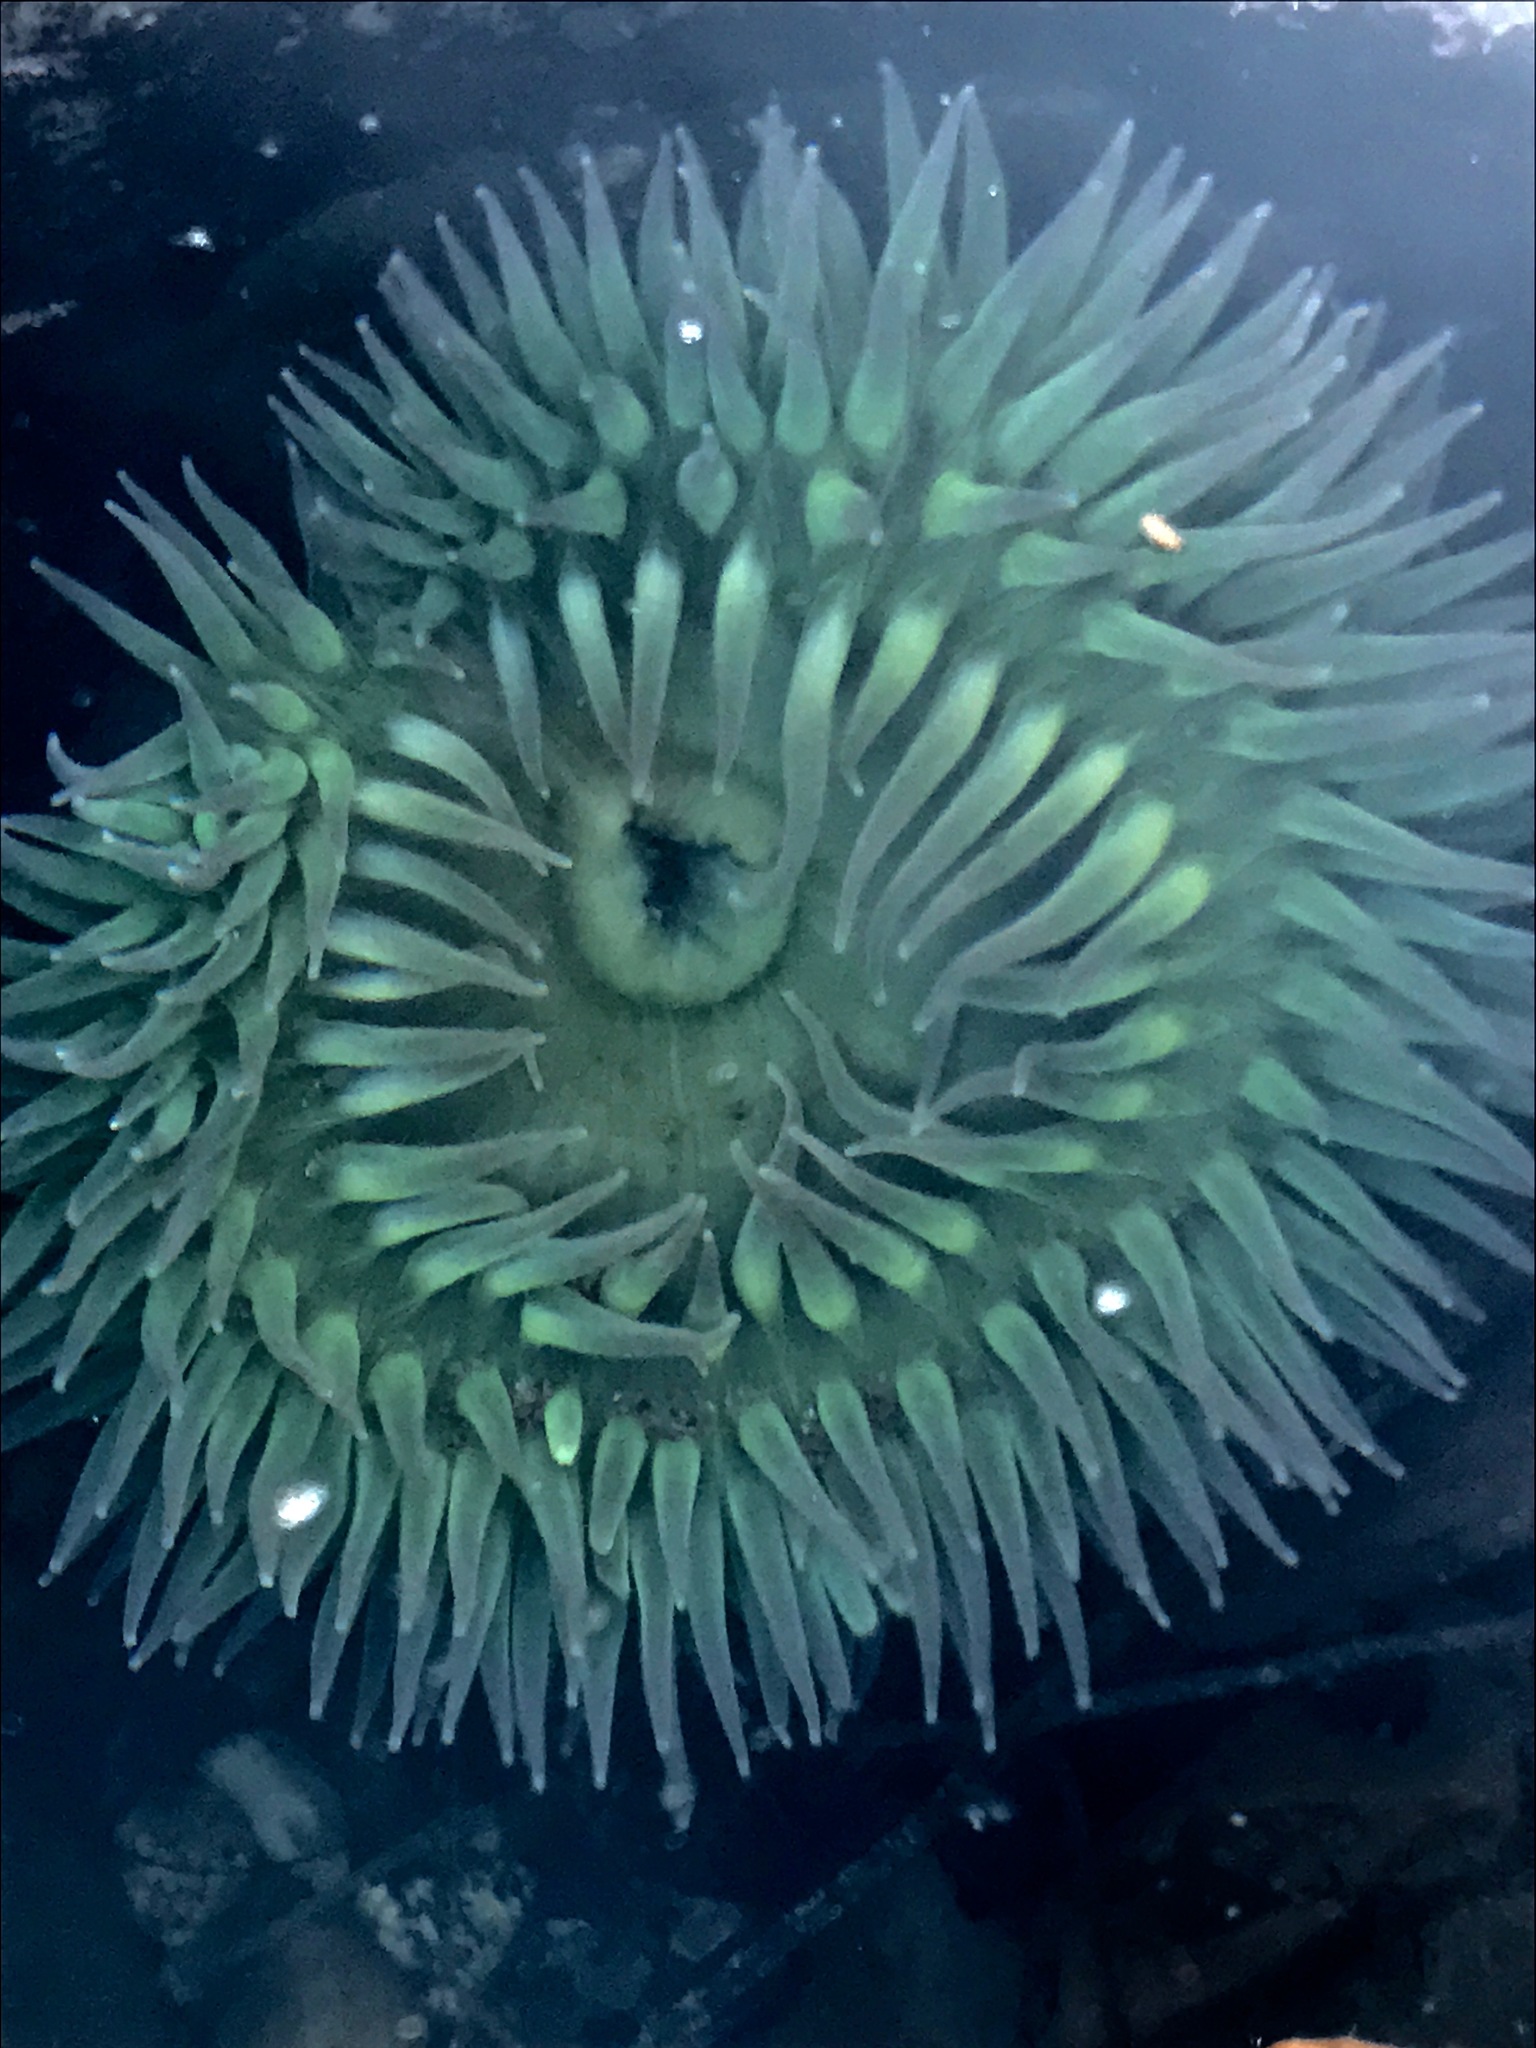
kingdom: Animalia
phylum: Cnidaria
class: Anthozoa
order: Actiniaria
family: Actiniidae
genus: Anthopleura
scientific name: Anthopleura xanthogrammica
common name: Giant green anemone
